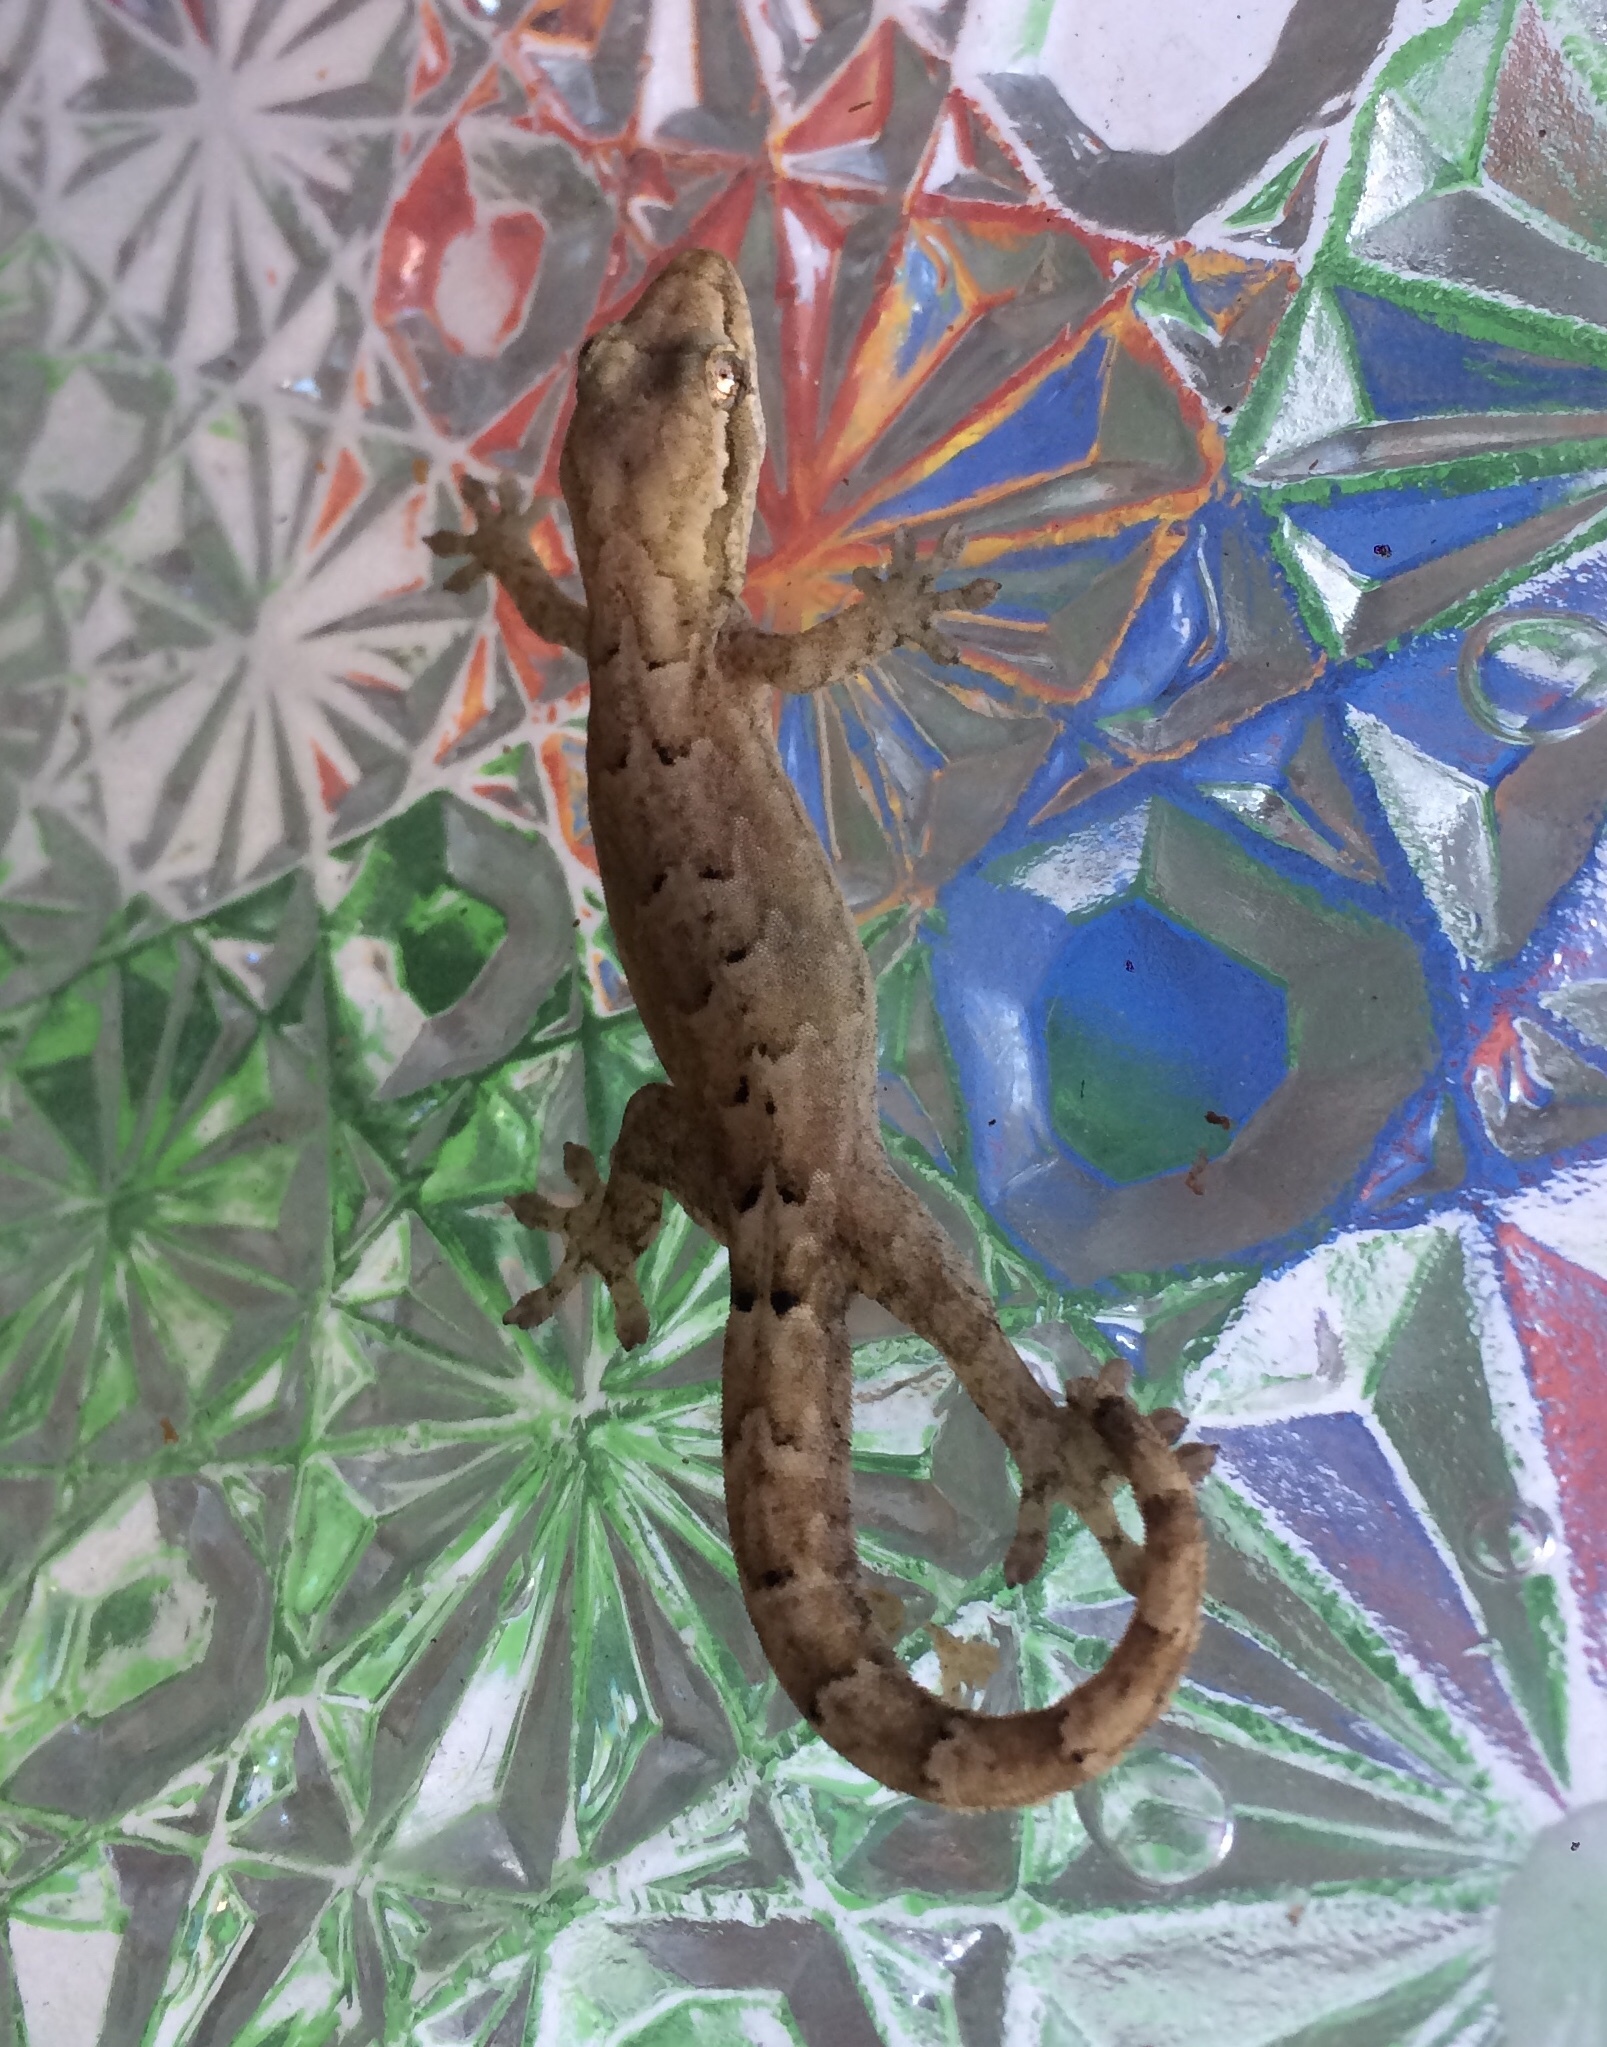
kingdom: Animalia
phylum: Chordata
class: Squamata
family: Gekkonidae
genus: Lepidodactylus
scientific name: Lepidodactylus lugubris
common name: Mourning gecko
